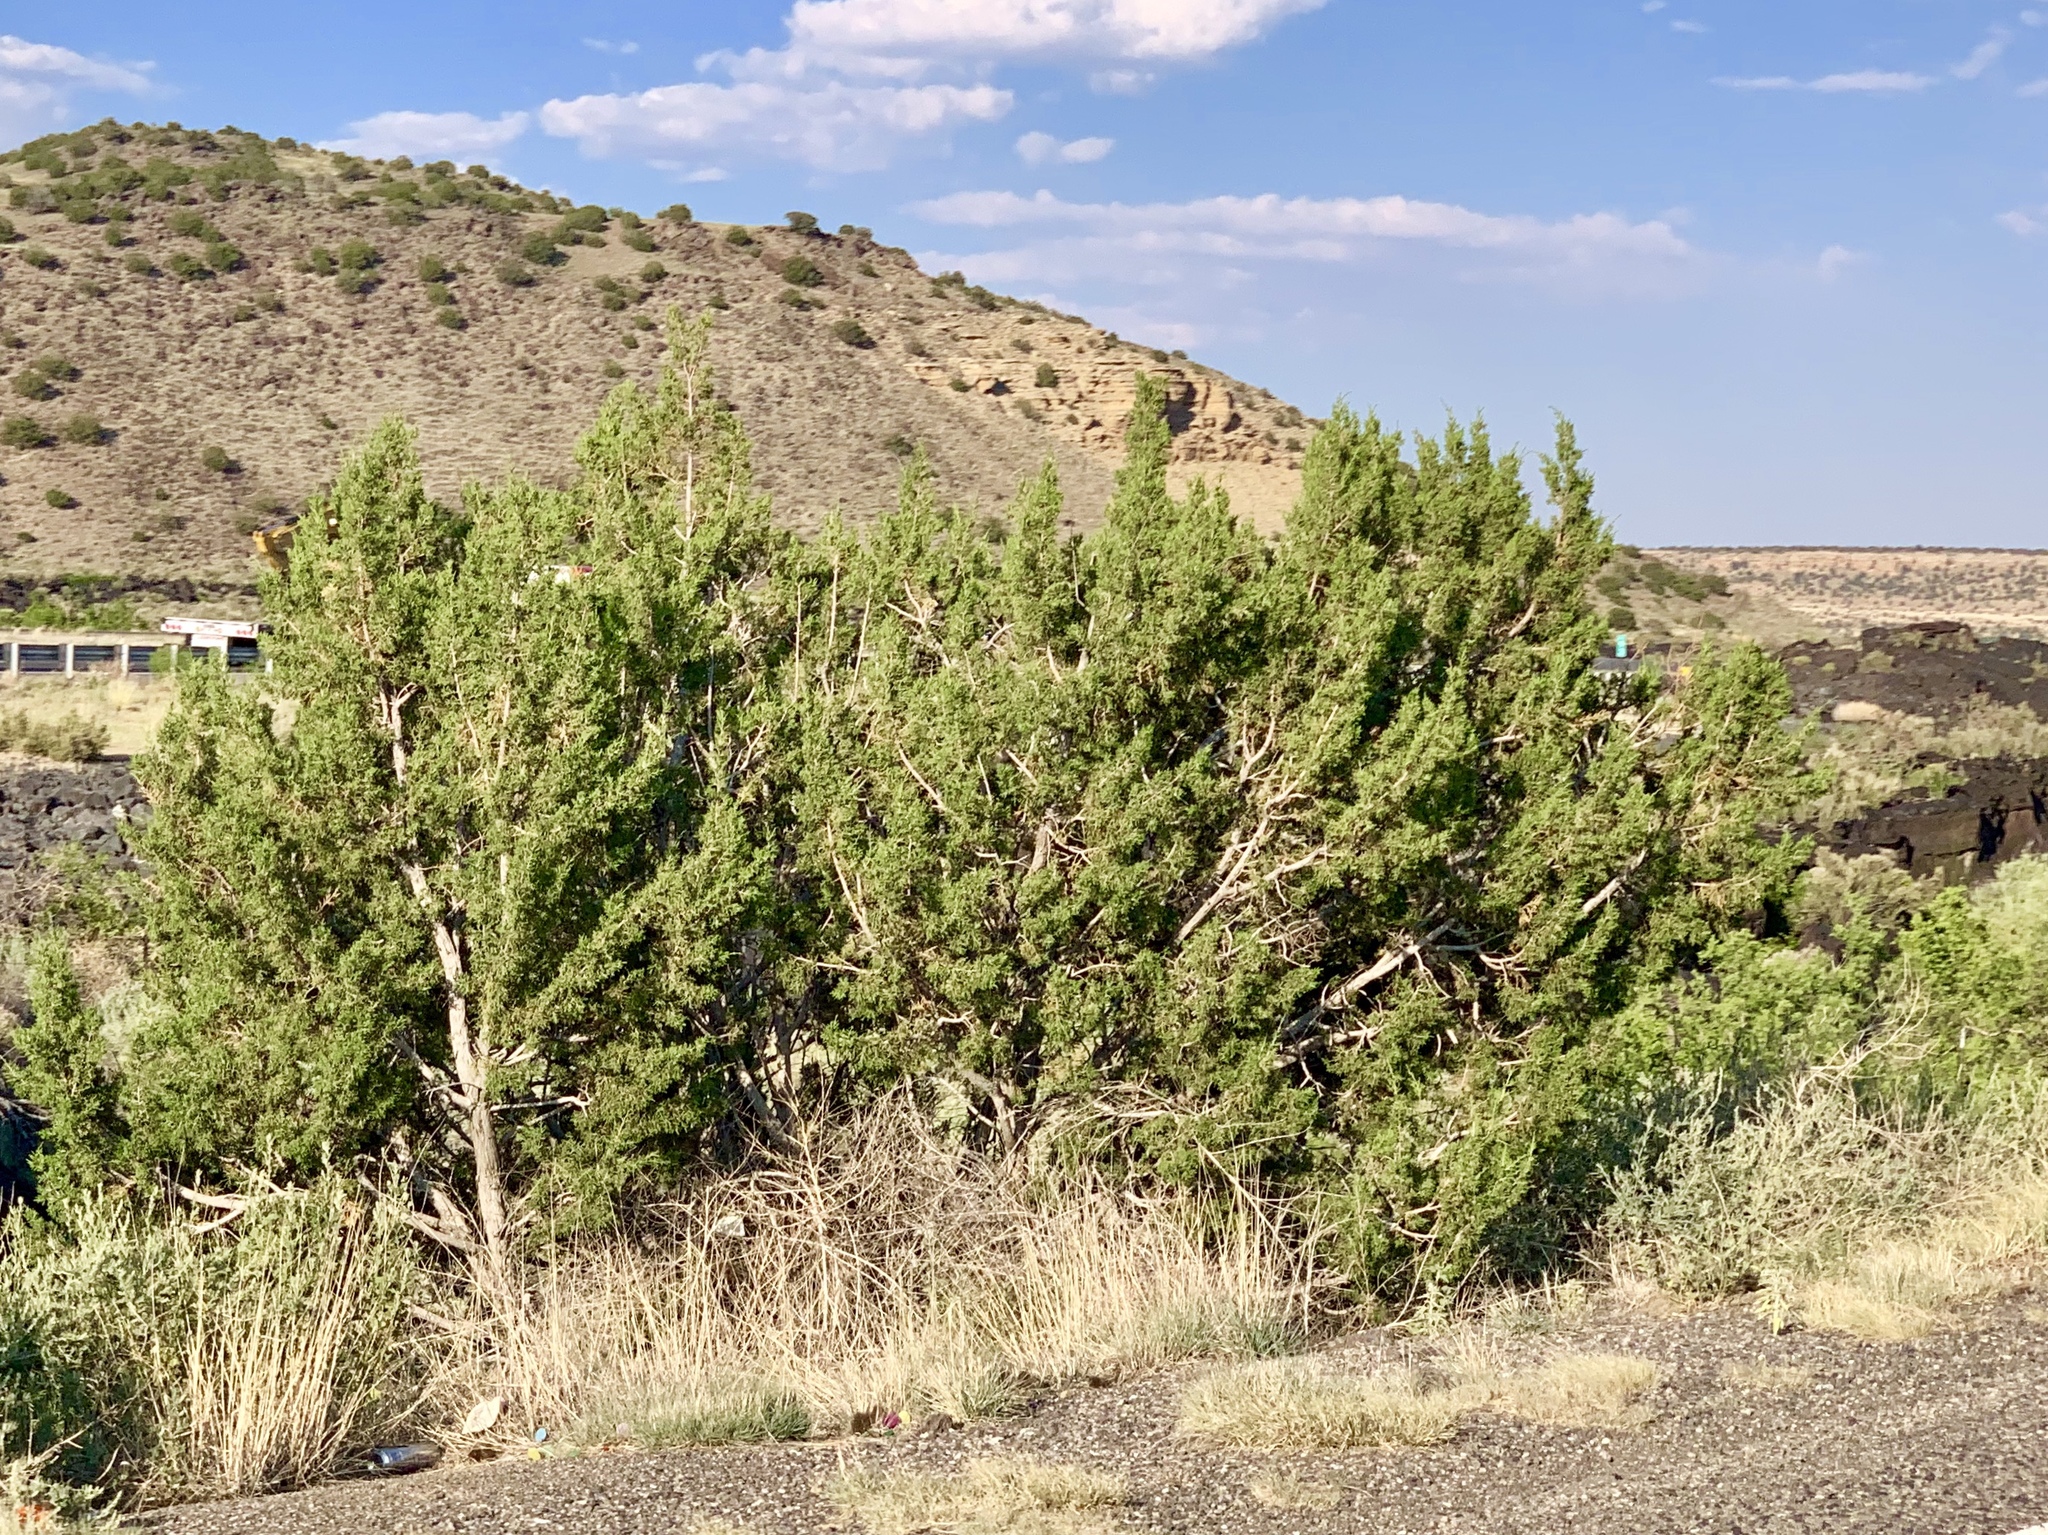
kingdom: Plantae
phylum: Tracheophyta
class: Pinopsida
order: Pinales
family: Cupressaceae
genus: Juniperus
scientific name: Juniperus monosperma
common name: One-seed juniper
